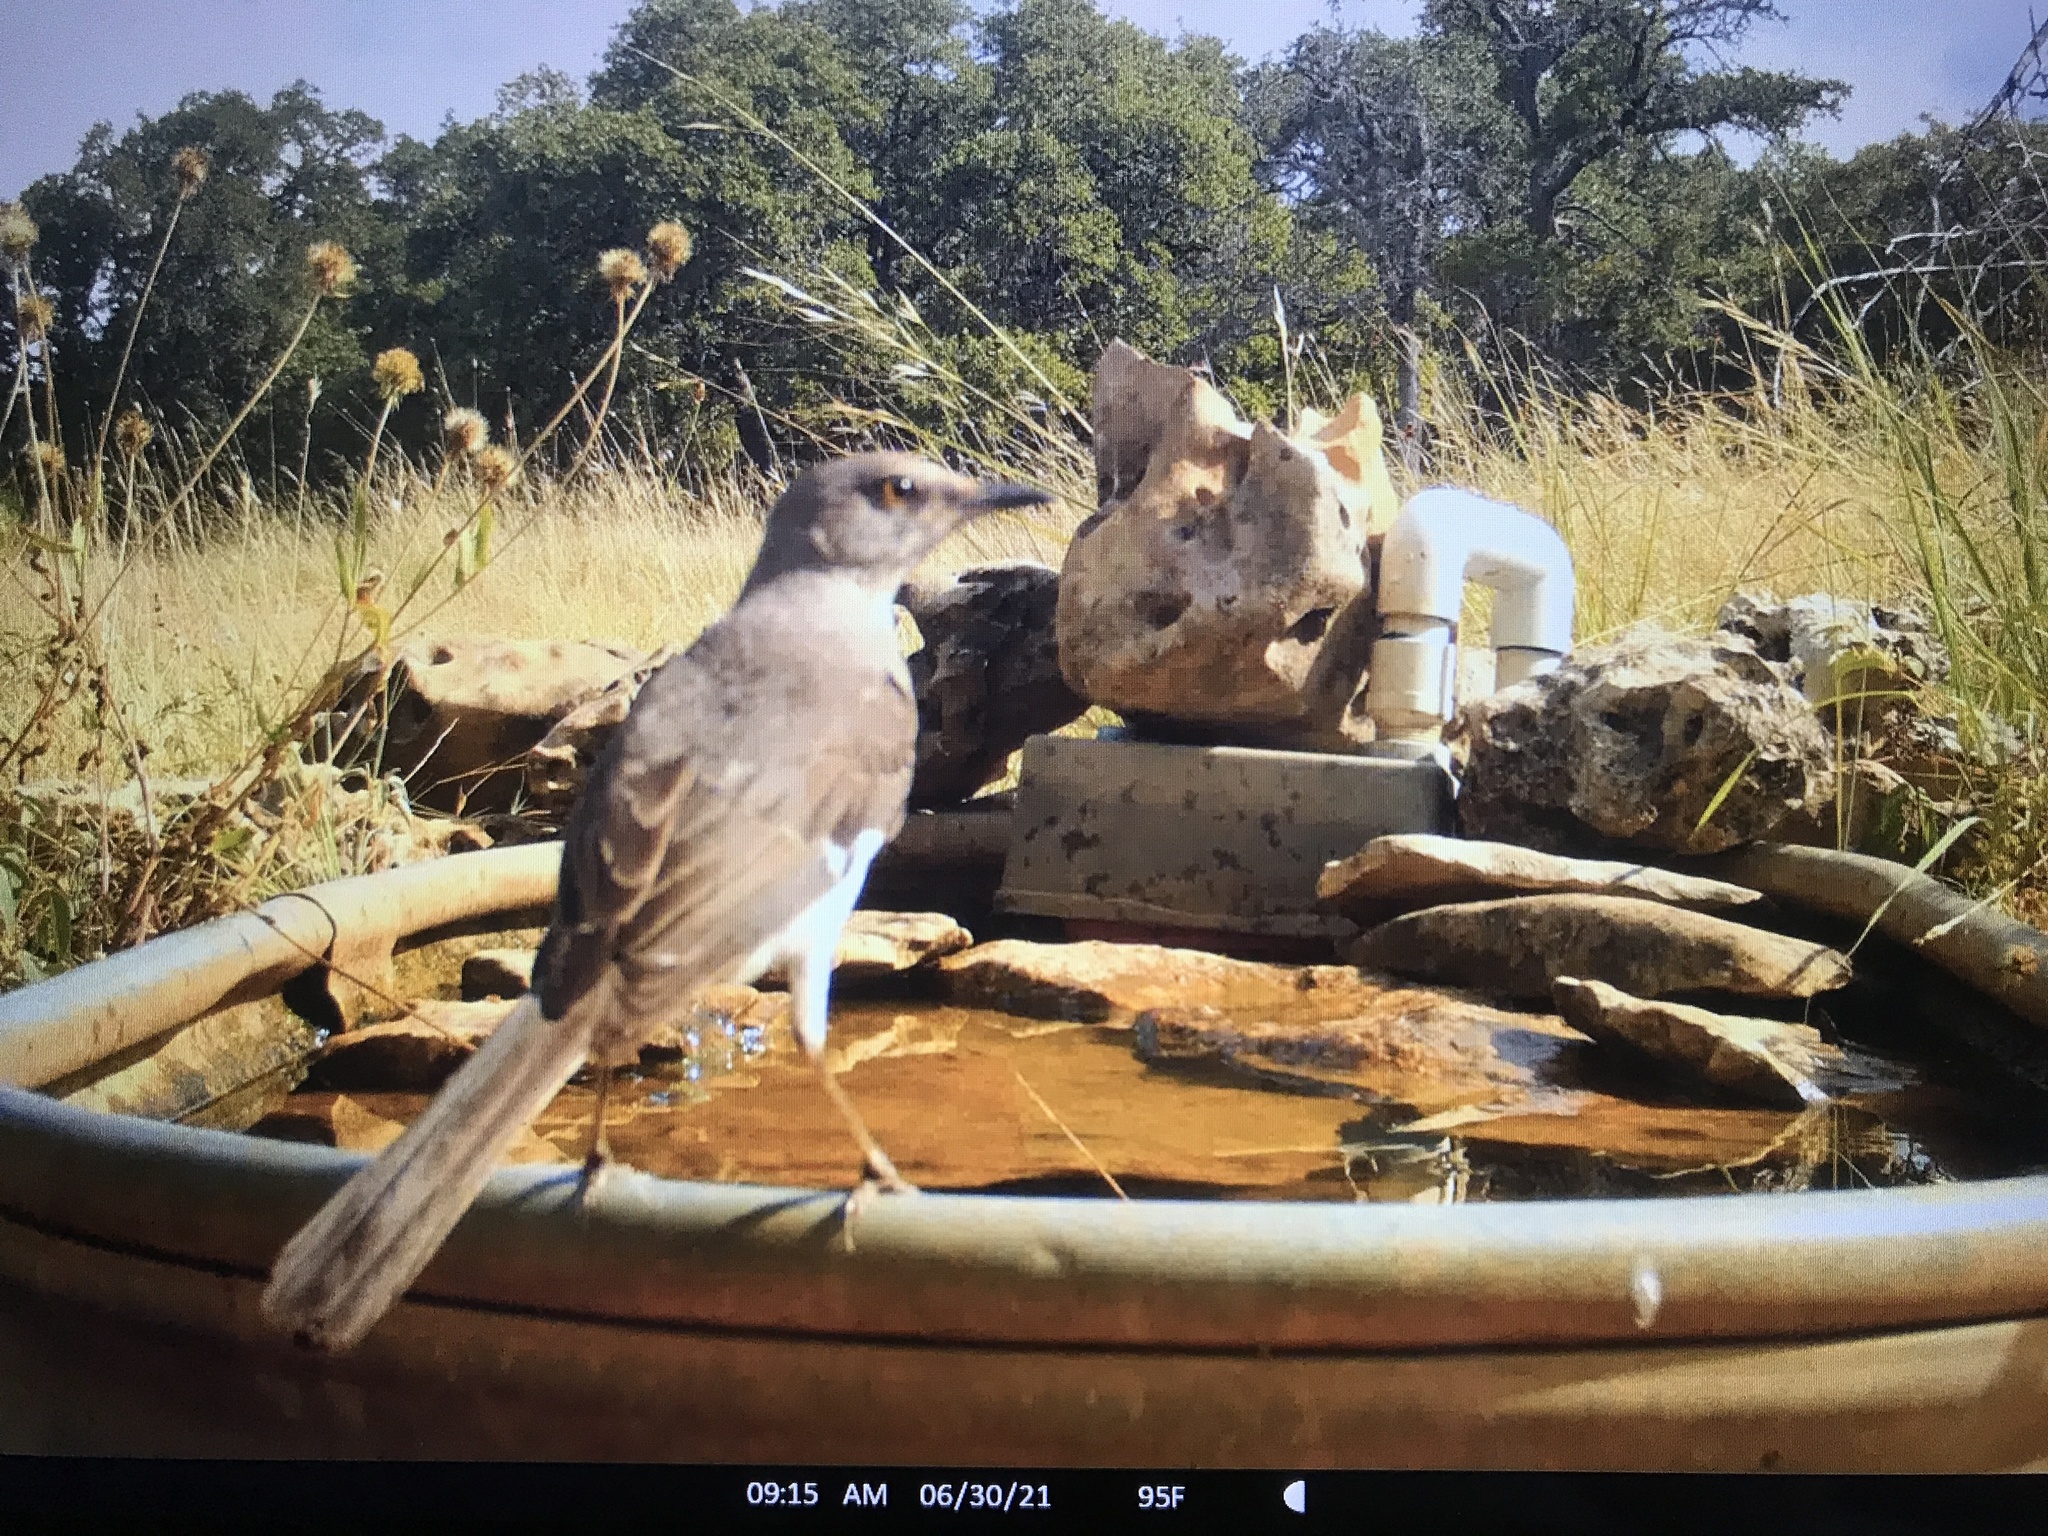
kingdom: Animalia
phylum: Chordata
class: Aves
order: Passeriformes
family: Mimidae
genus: Mimus
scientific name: Mimus polyglottos
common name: Northern mockingbird
